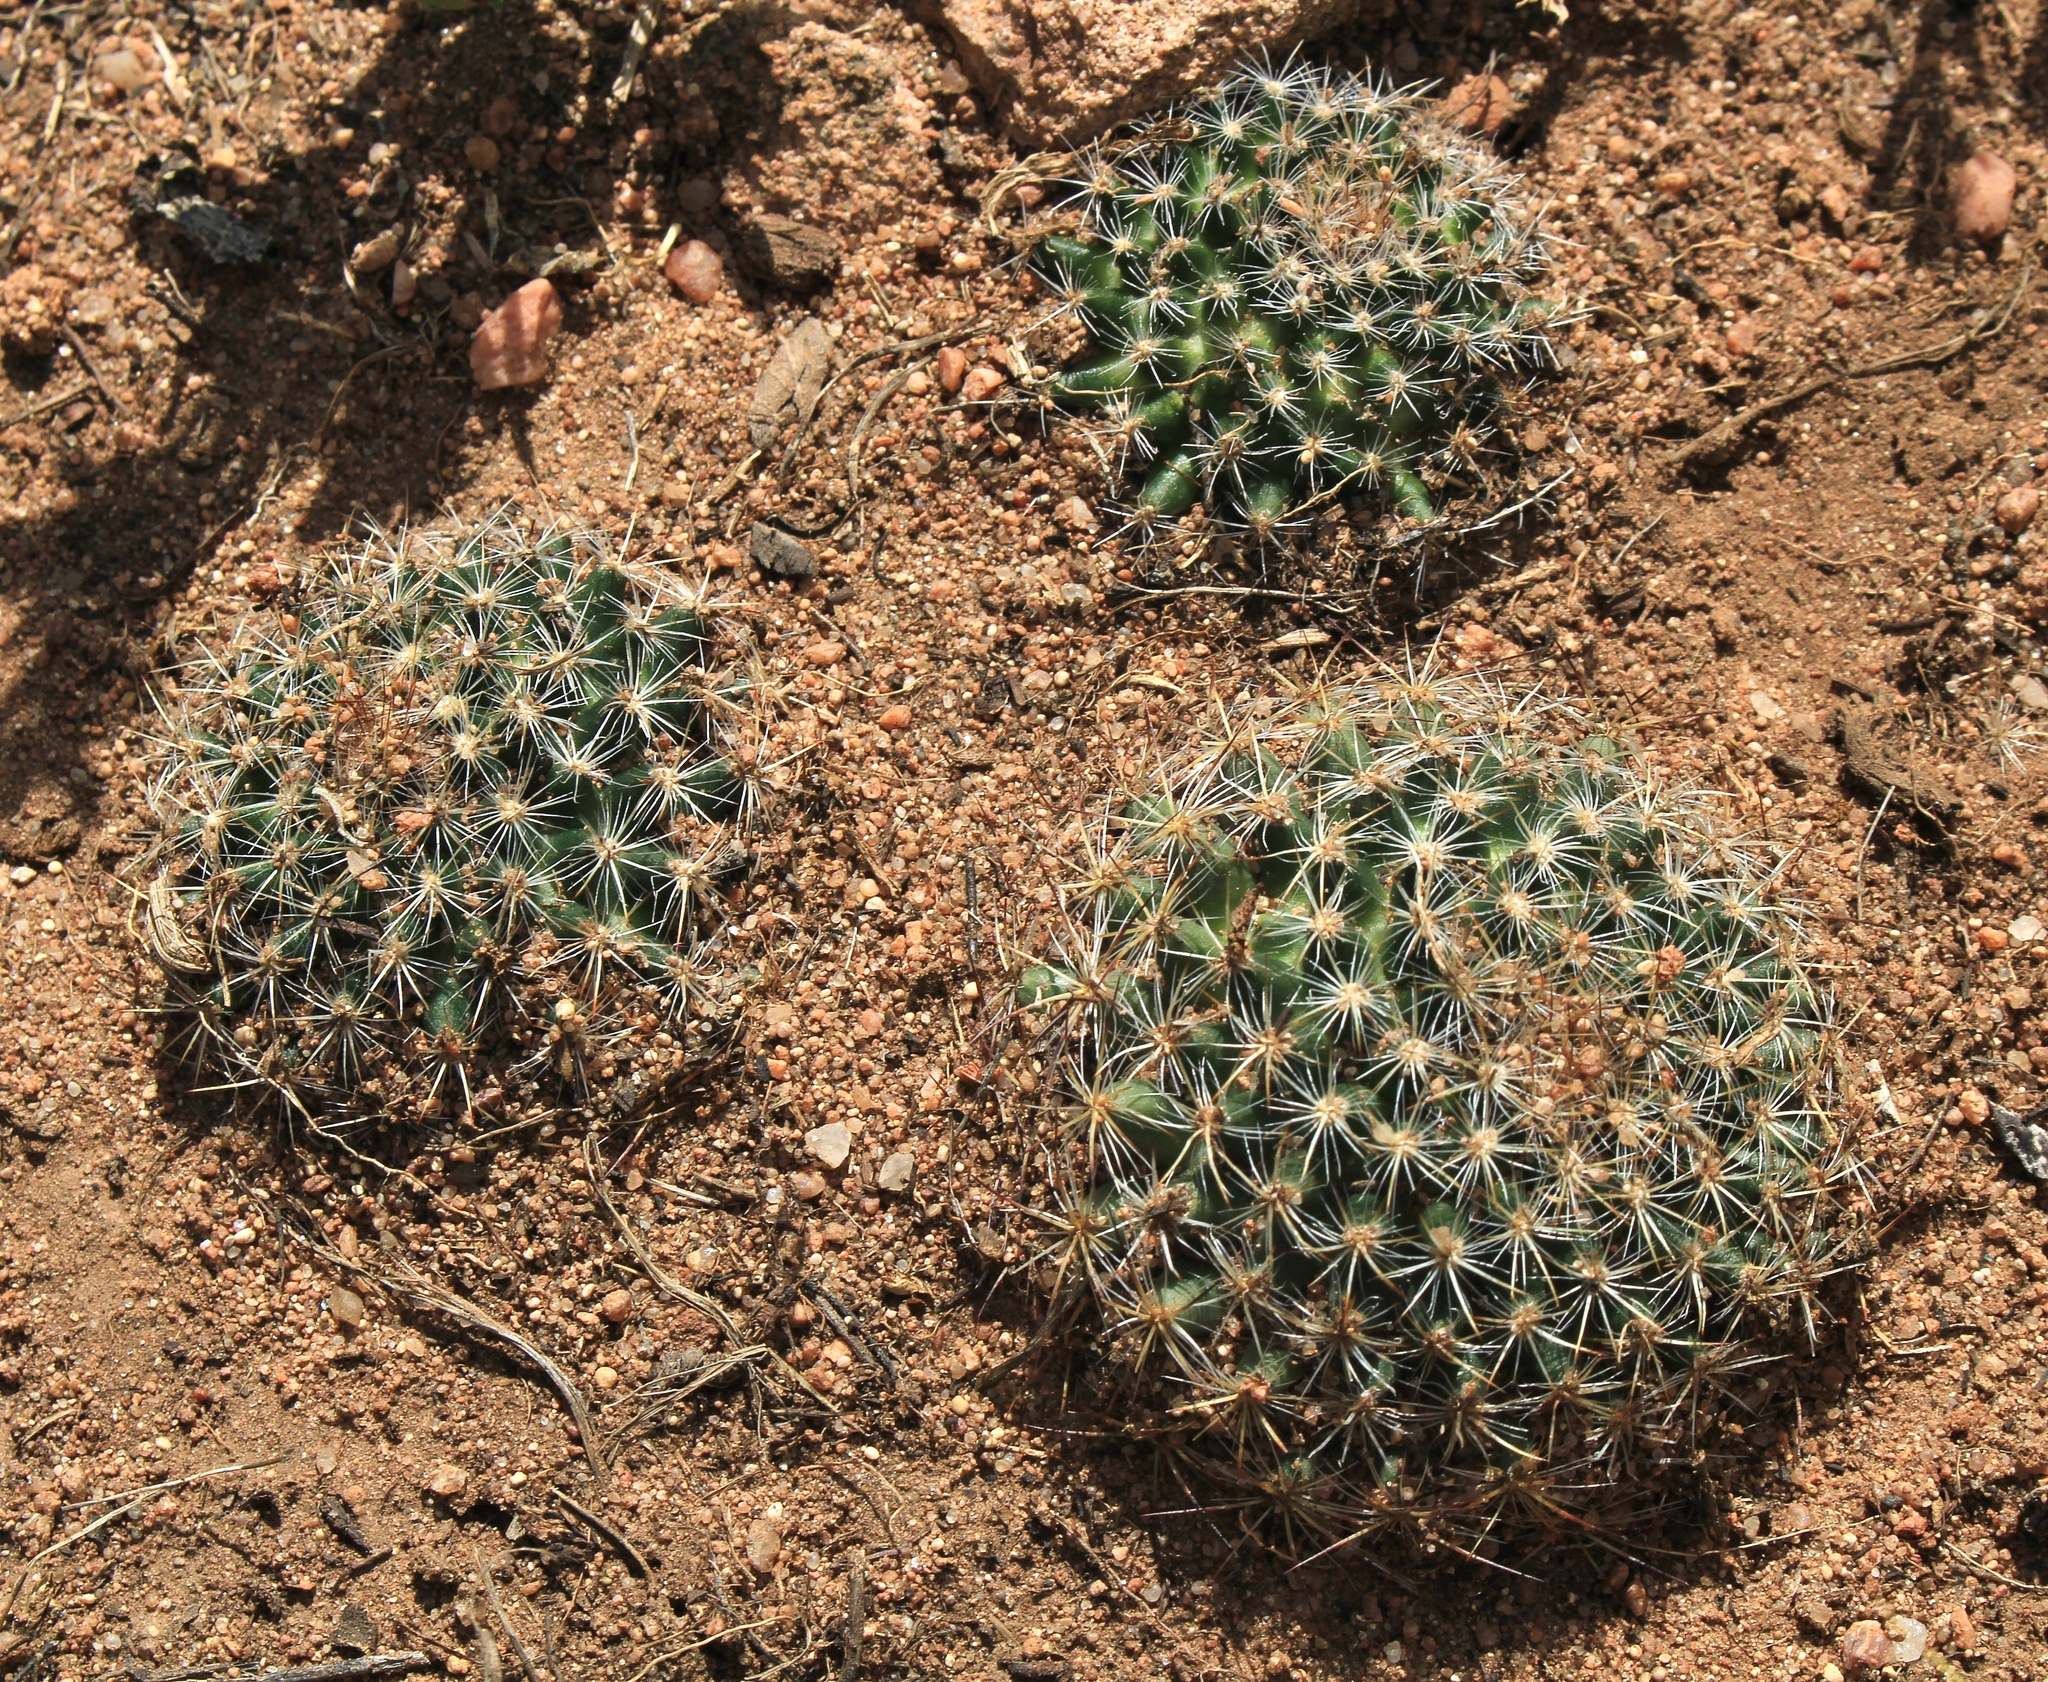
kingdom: Plantae
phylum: Tracheophyta
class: Magnoliopsida
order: Caryophyllales
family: Cactaceae
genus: Pediocactus
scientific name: Pediocactus simpsonii
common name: Simpson's hedgehog cactus
